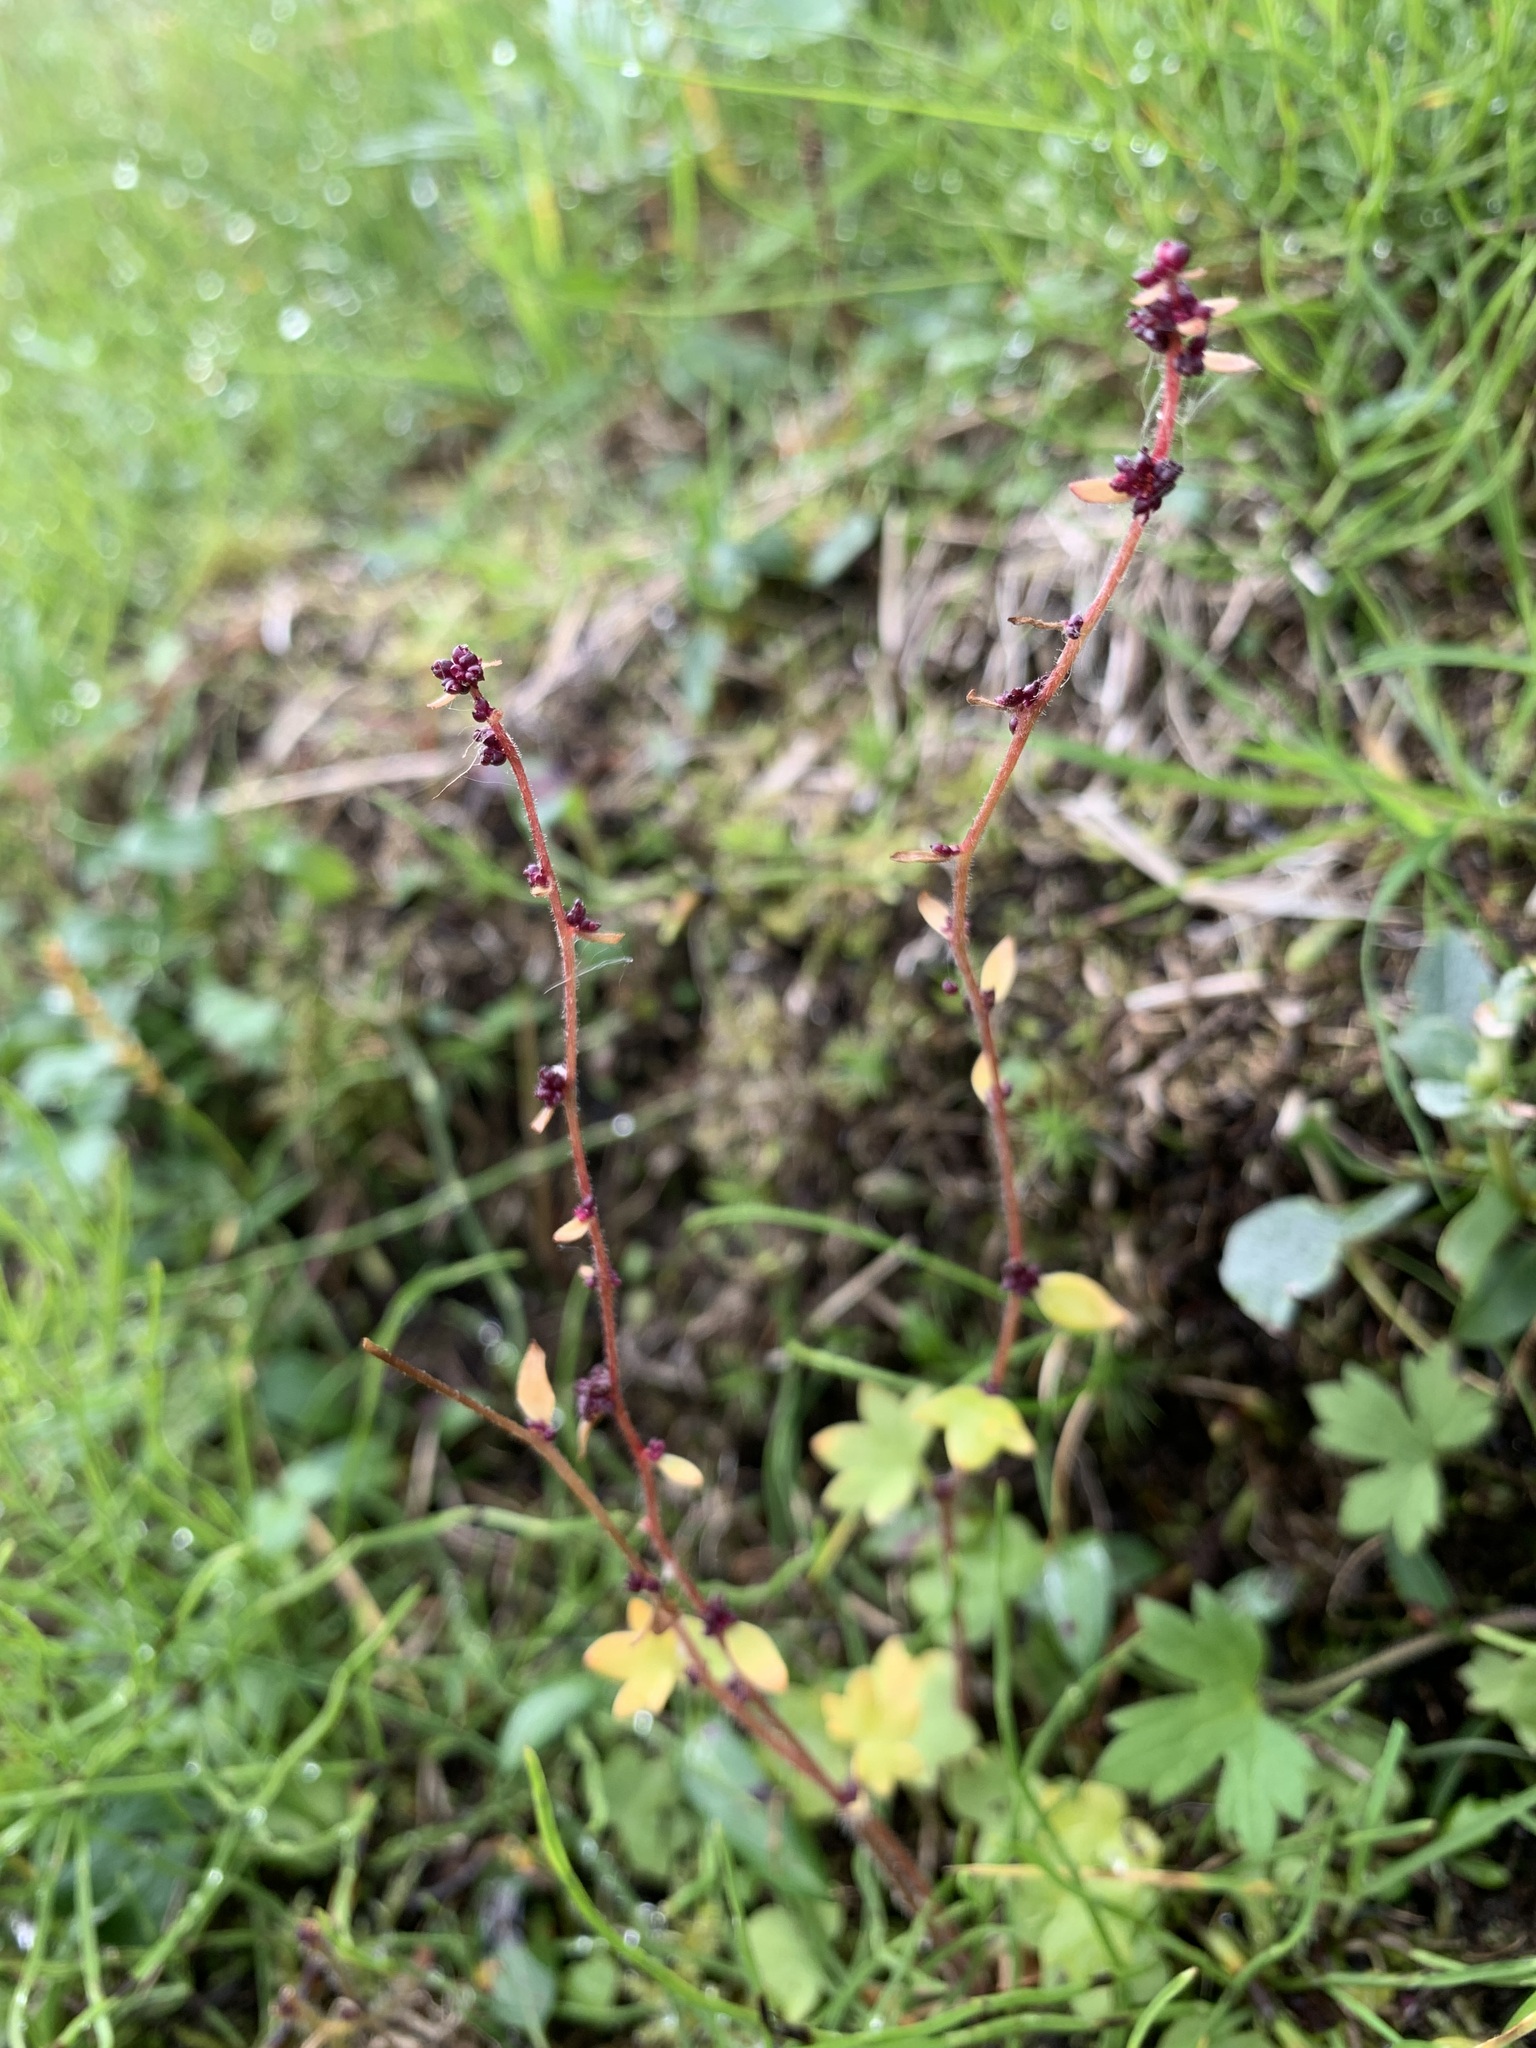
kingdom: Plantae
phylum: Tracheophyta
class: Magnoliopsida
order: Saxifragales
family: Saxifragaceae
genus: Saxifraga
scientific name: Saxifraga cernua
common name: Drooping saxifrage
